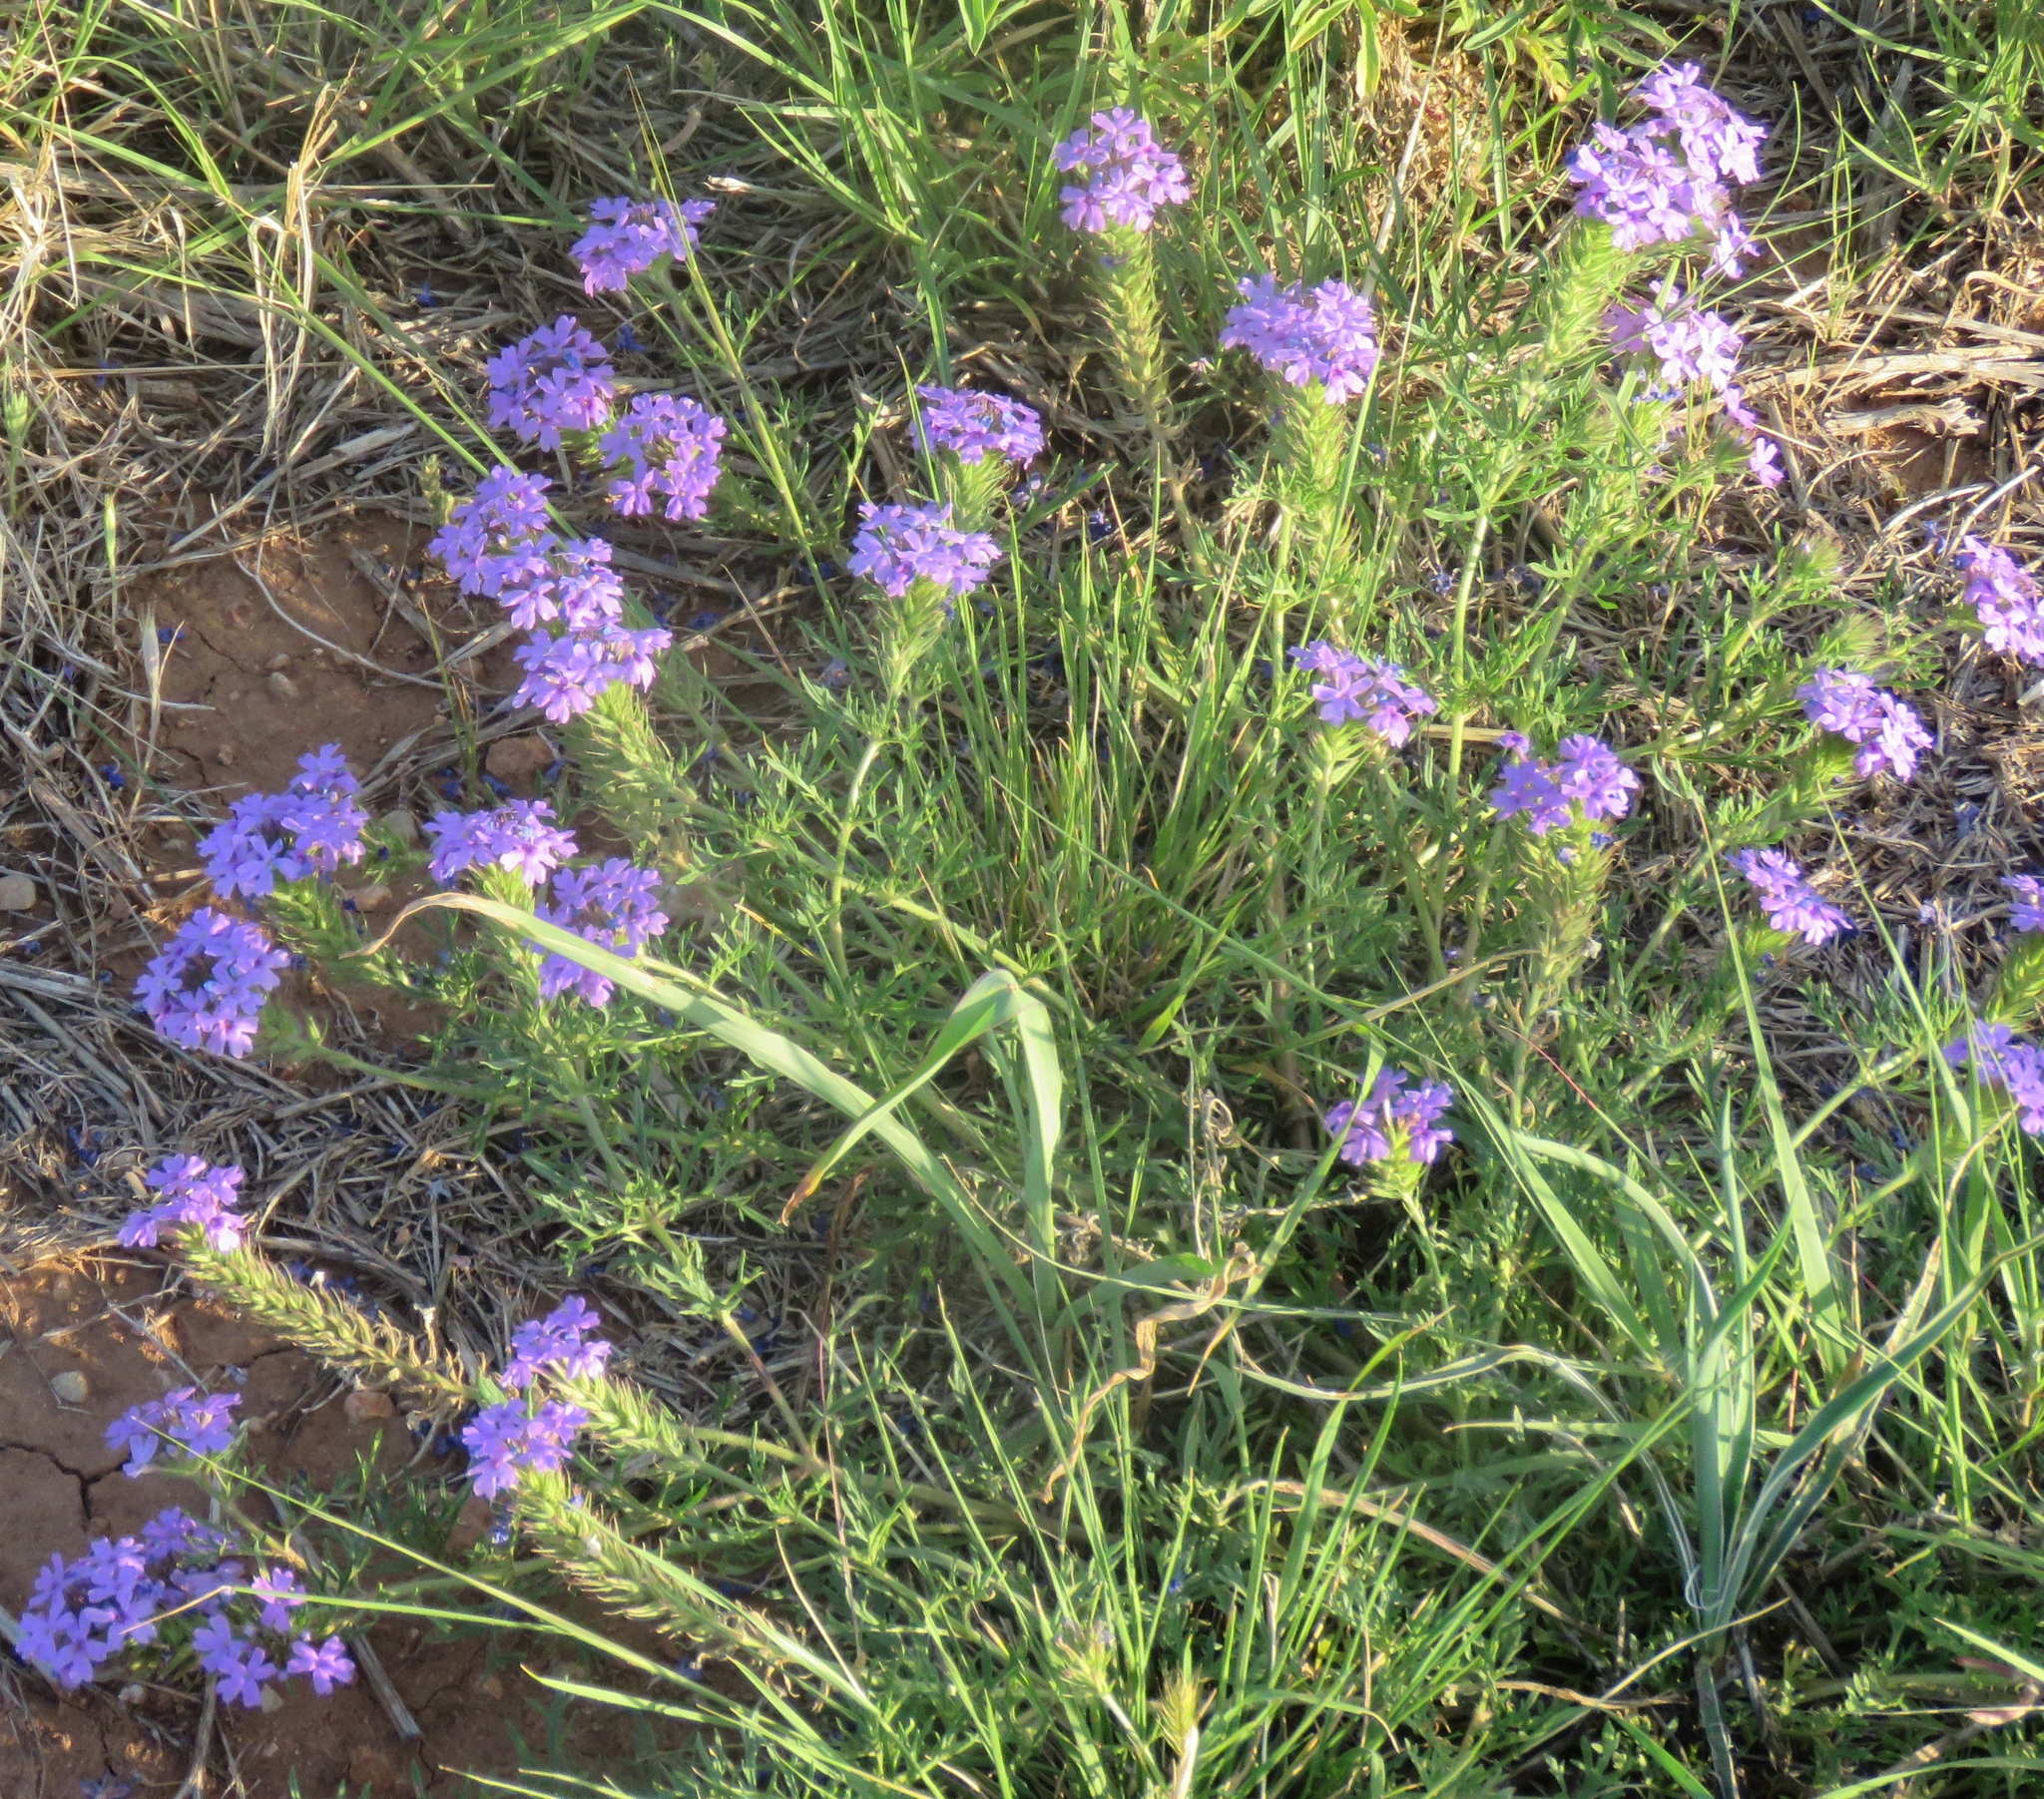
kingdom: Plantae
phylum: Tracheophyta
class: Magnoliopsida
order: Lamiales
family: Verbenaceae
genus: Verbena
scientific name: Verbena bipinnatifida
